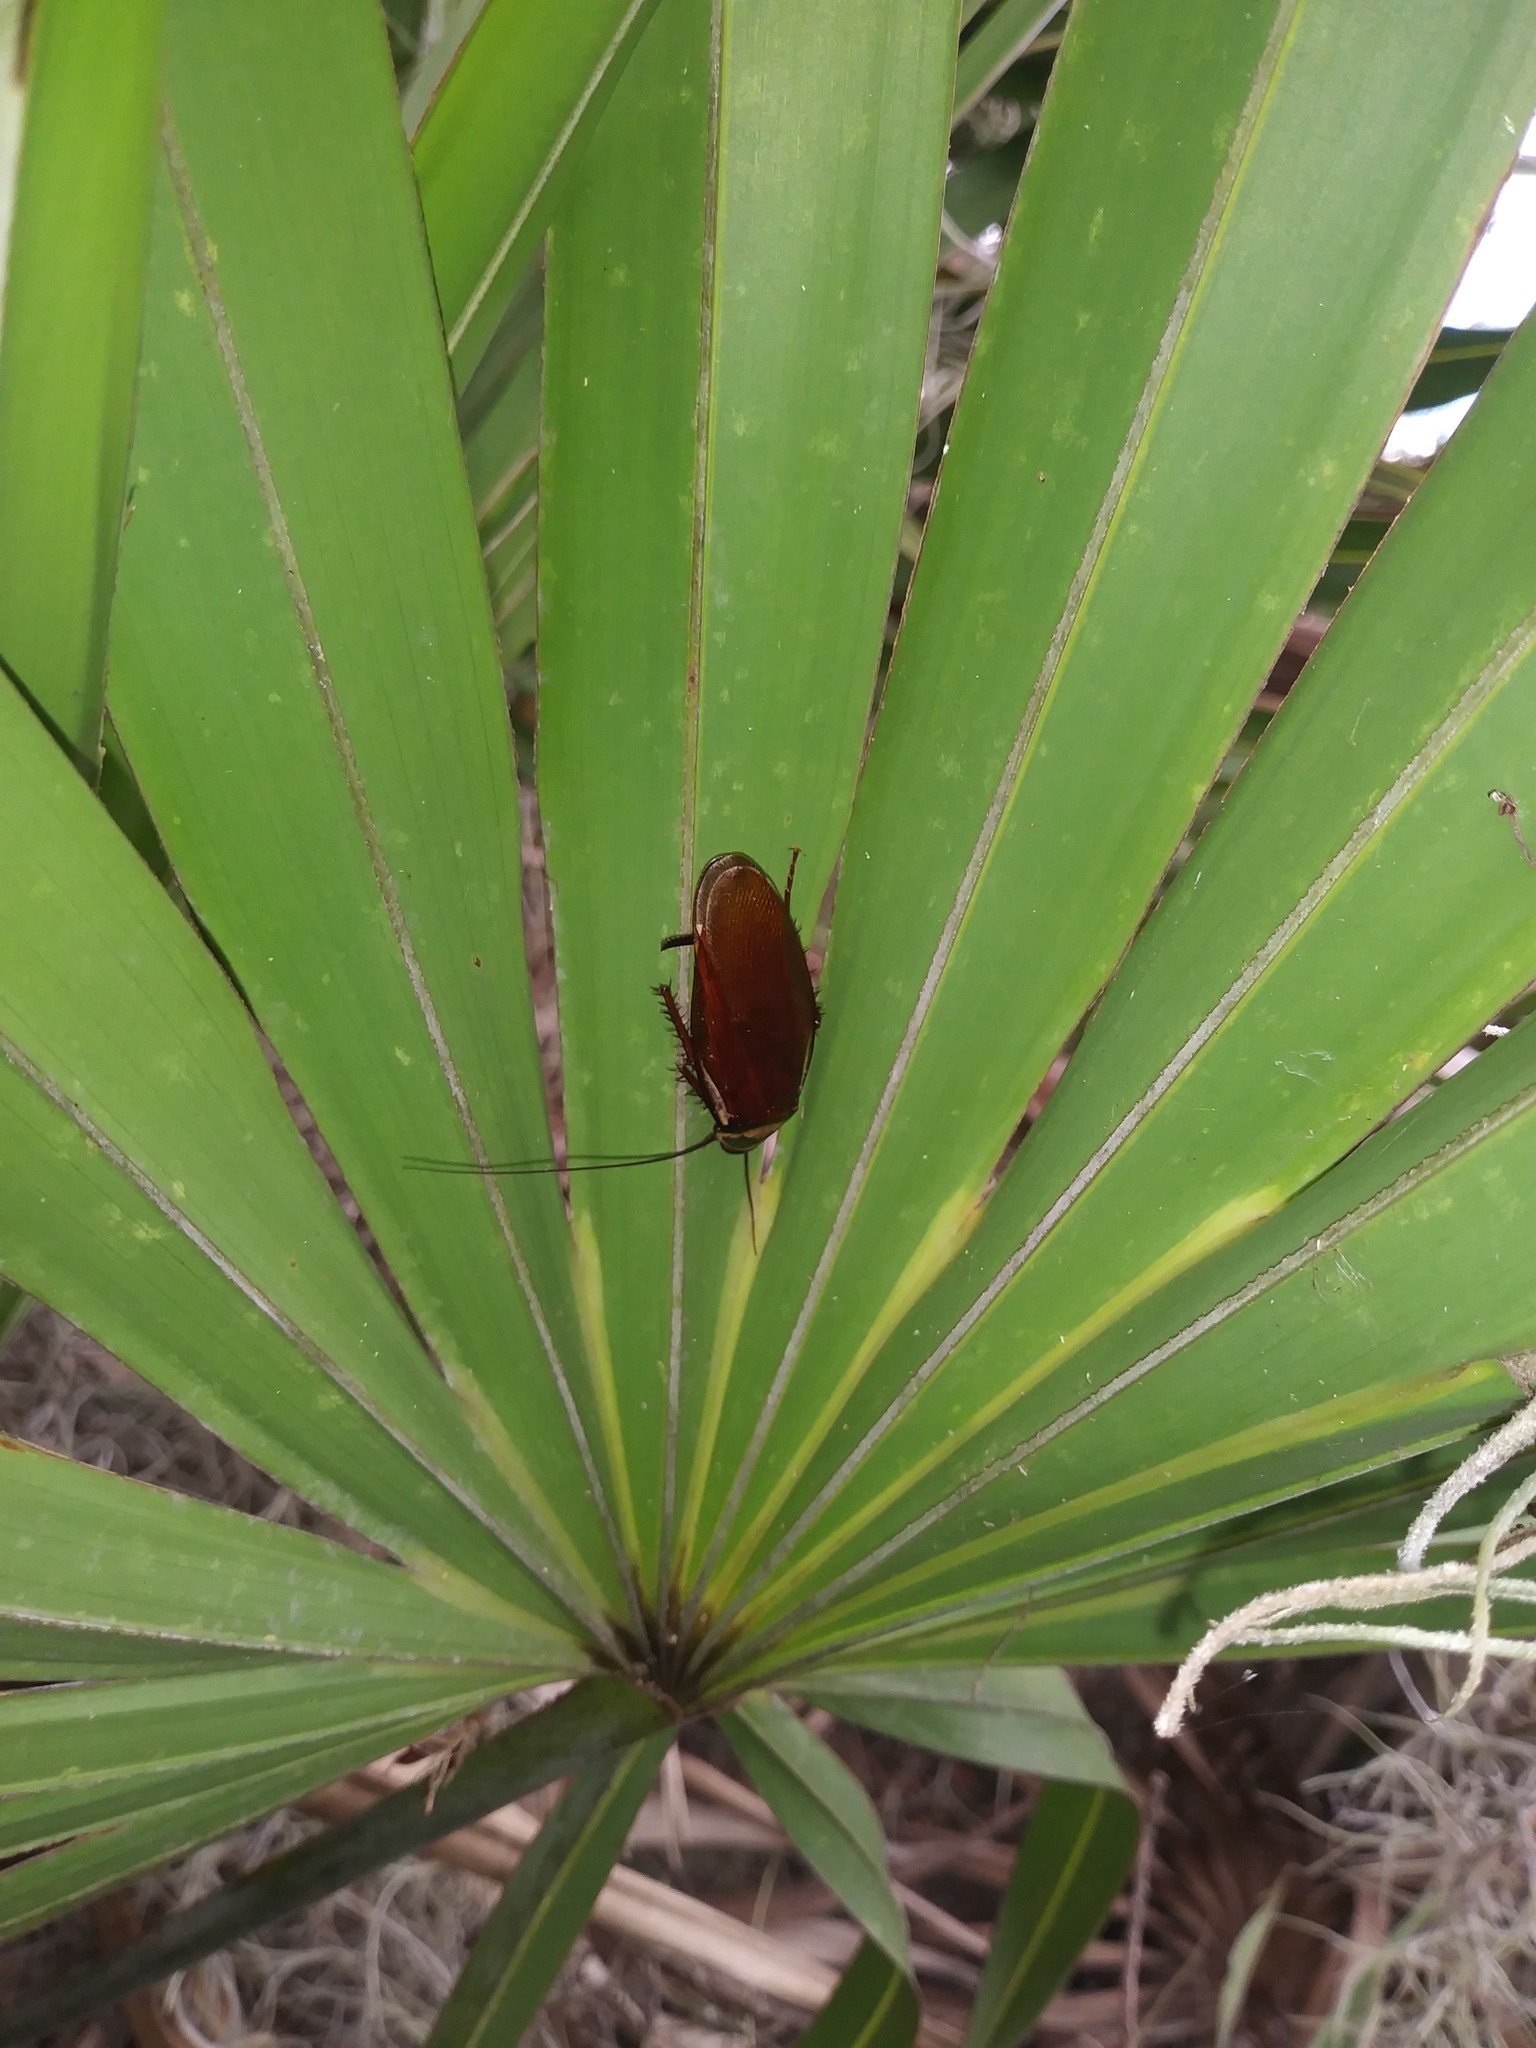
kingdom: Animalia
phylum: Arthropoda
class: Insecta
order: Blattodea
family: Blattidae
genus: Periplaneta
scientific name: Periplaneta australasiae
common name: Australian cockroach
